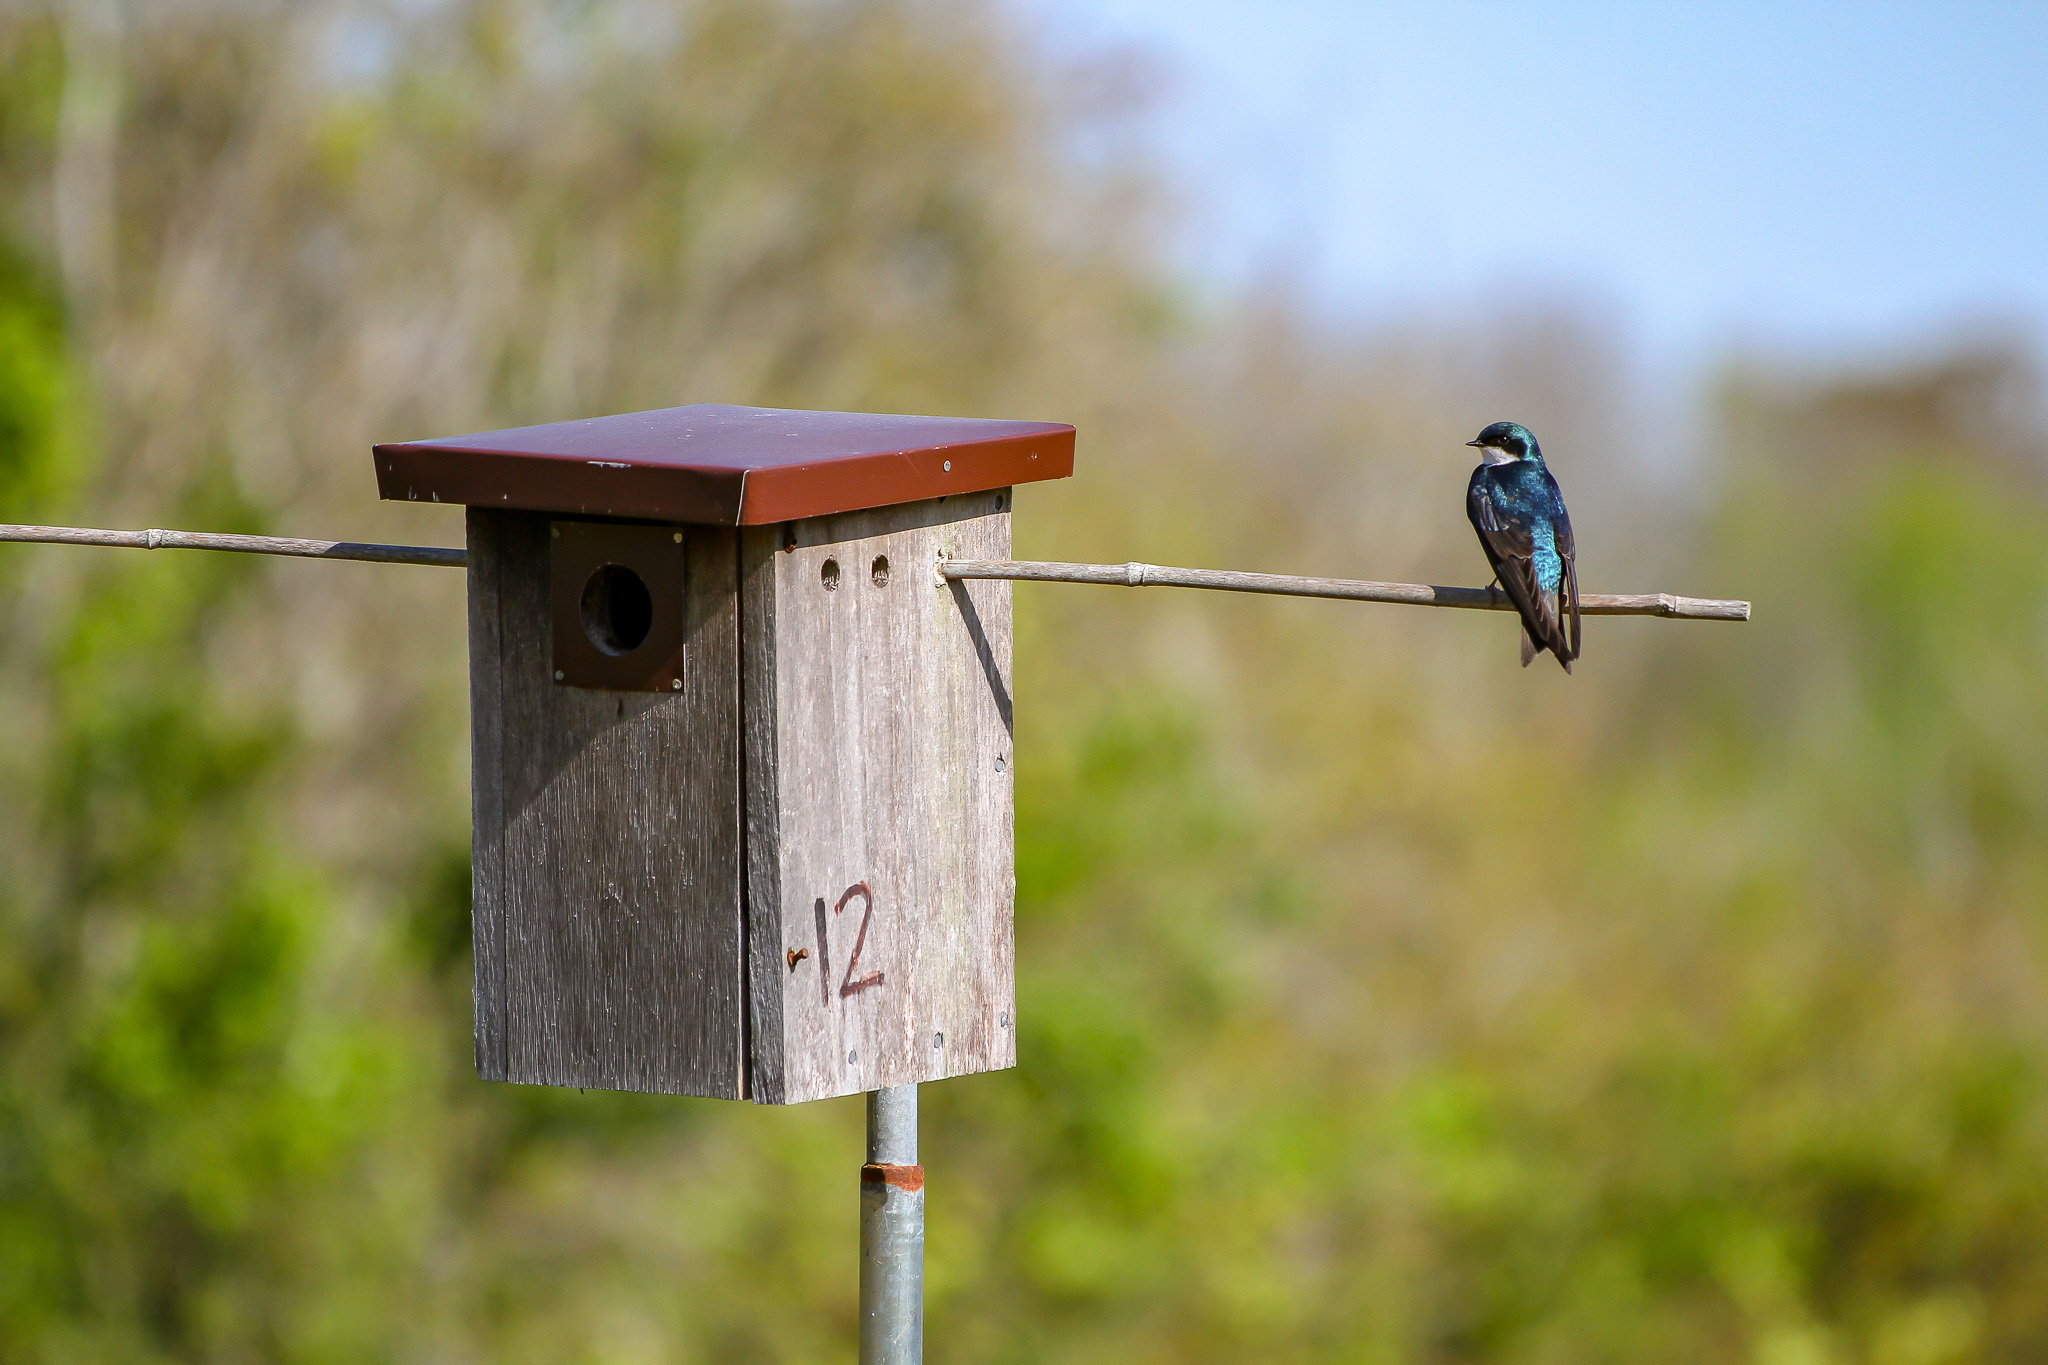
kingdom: Animalia
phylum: Chordata
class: Aves
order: Passeriformes
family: Hirundinidae
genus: Tachycineta
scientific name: Tachycineta bicolor
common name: Tree swallow
